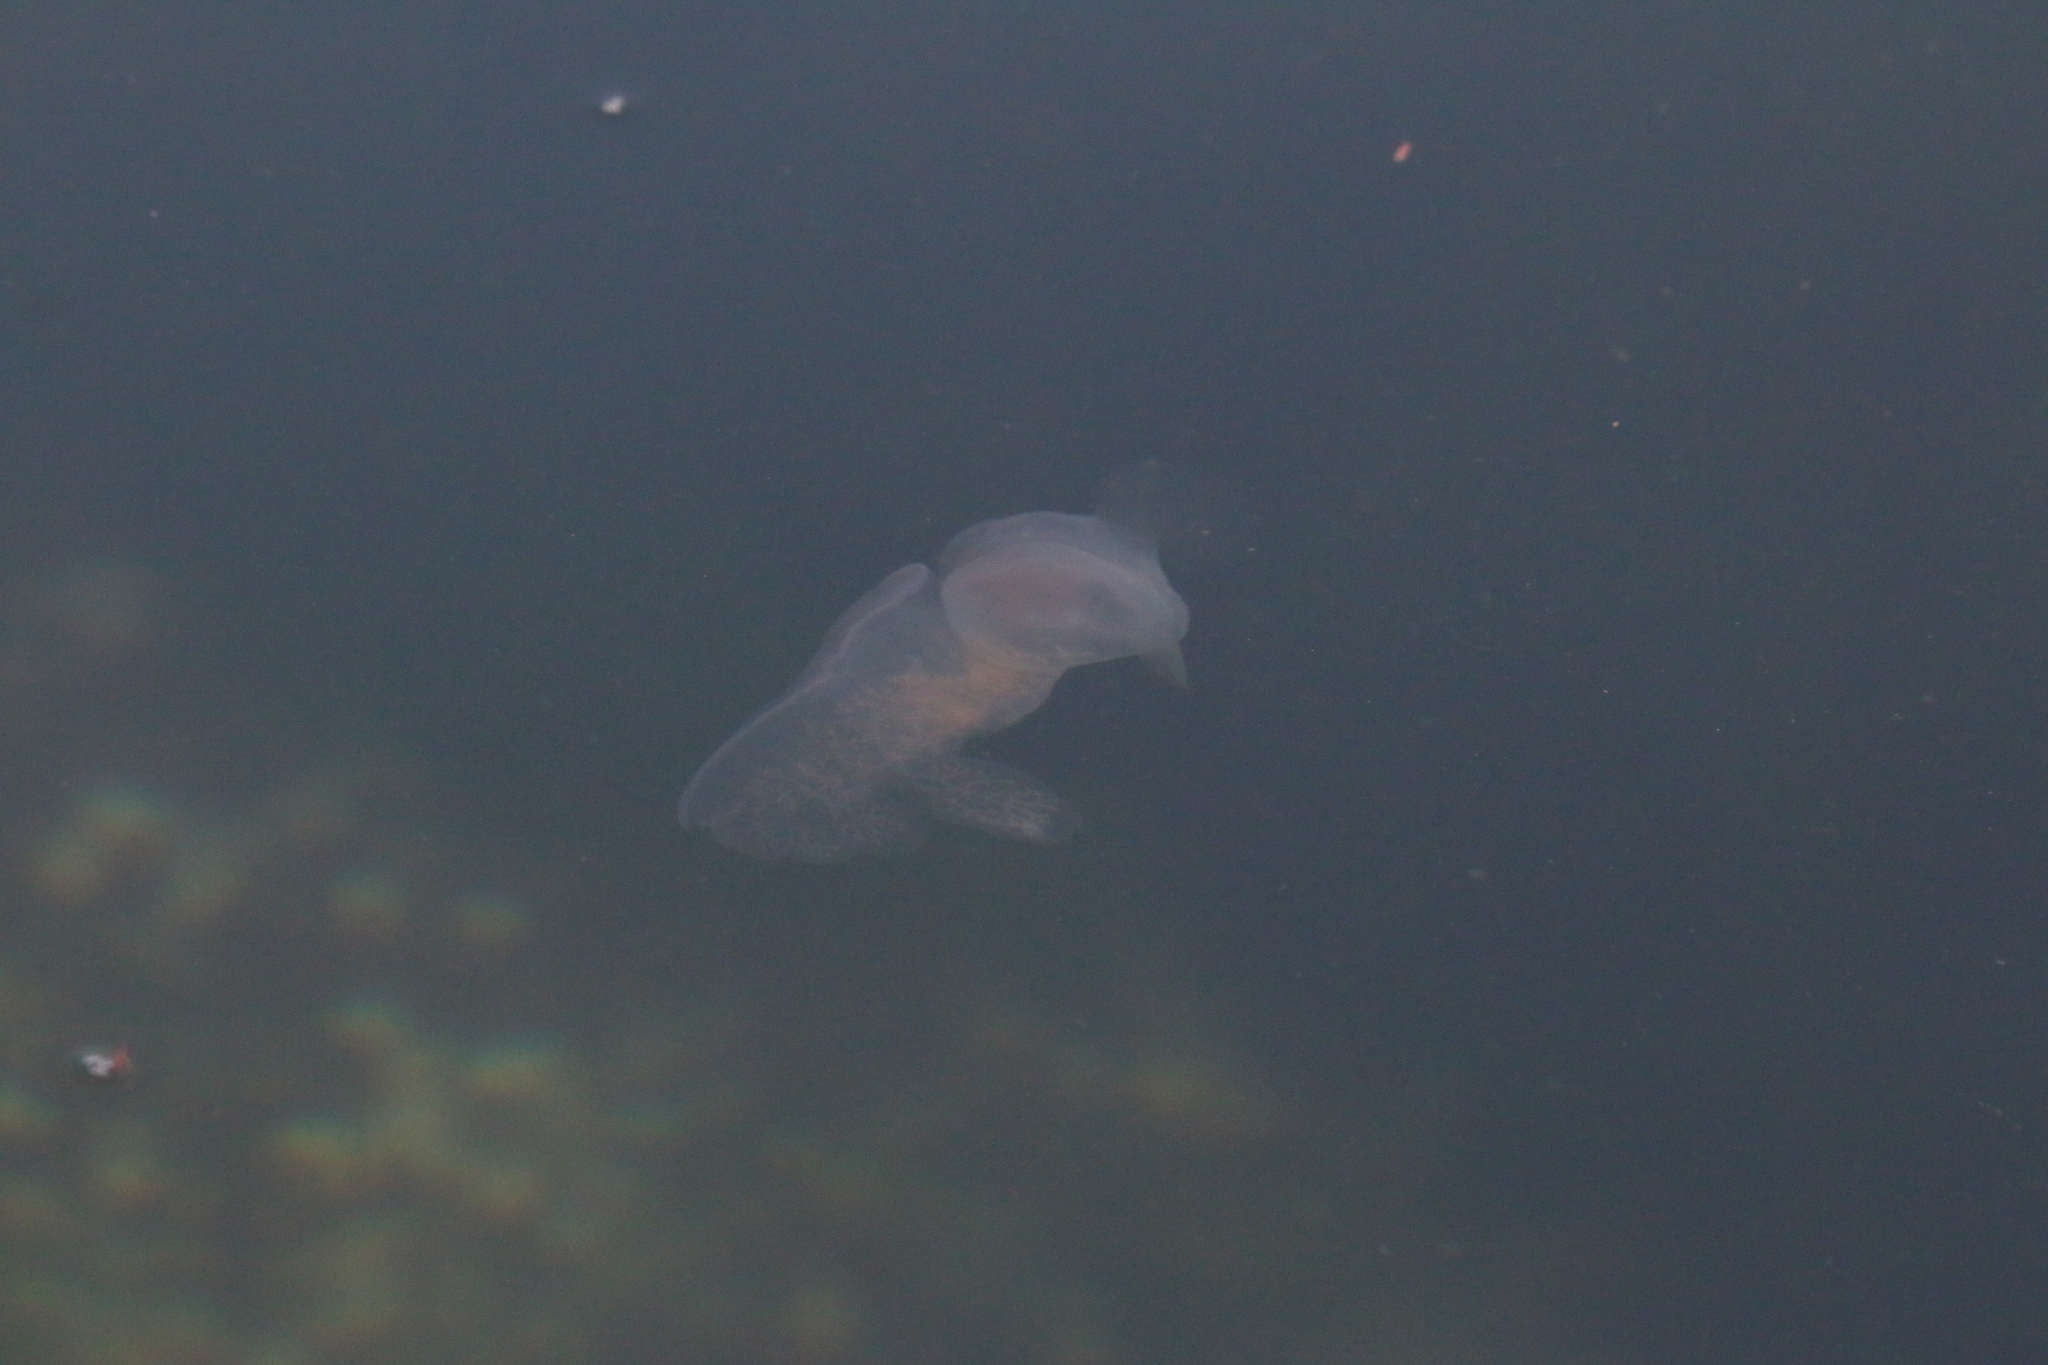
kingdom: Animalia
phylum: Mollusca
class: Gastropoda
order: Nudibranchia
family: Tethydidae
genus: Melibe
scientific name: Melibe leonina
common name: Lion nudibranch
